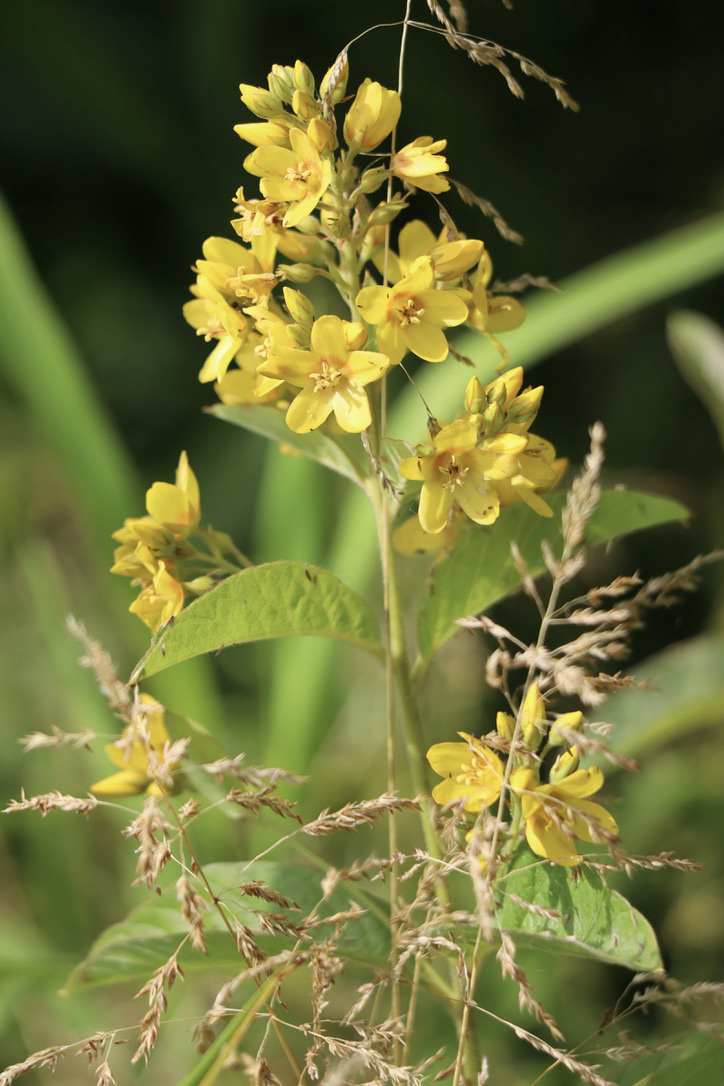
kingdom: Plantae
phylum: Tracheophyta
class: Magnoliopsida
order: Ericales
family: Primulaceae
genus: Lysimachia
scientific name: Lysimachia vulgaris
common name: Yellow loosestrife
